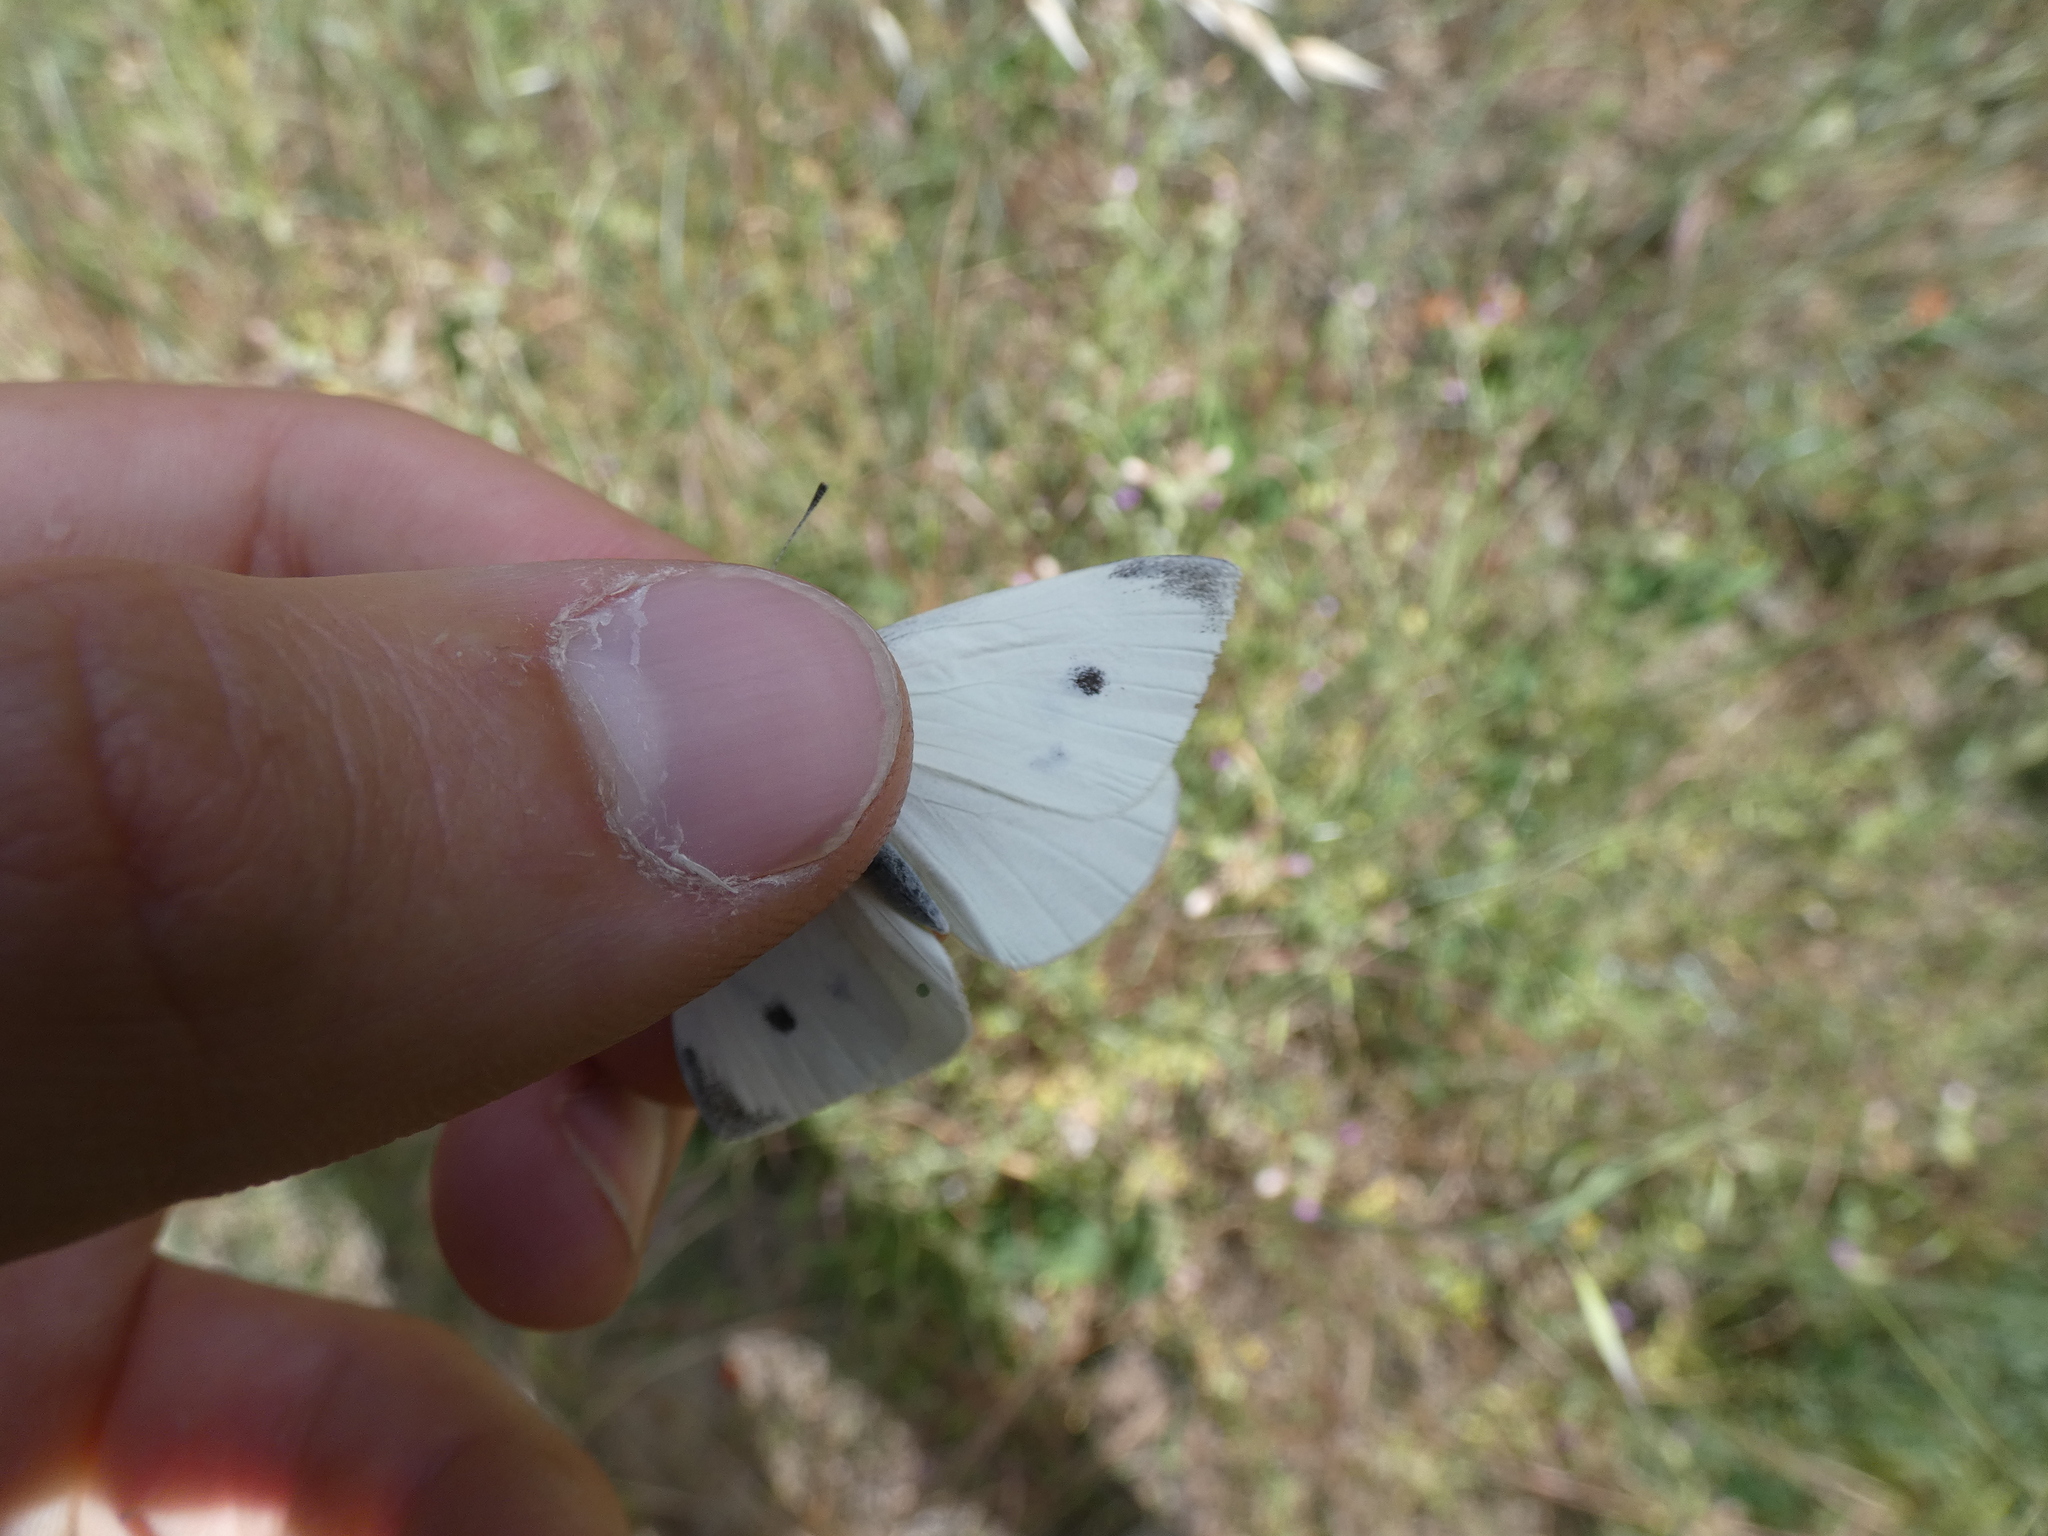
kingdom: Animalia
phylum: Arthropoda
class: Insecta
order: Lepidoptera
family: Pieridae
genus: Pieris
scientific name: Pieris rapae
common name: Small white
